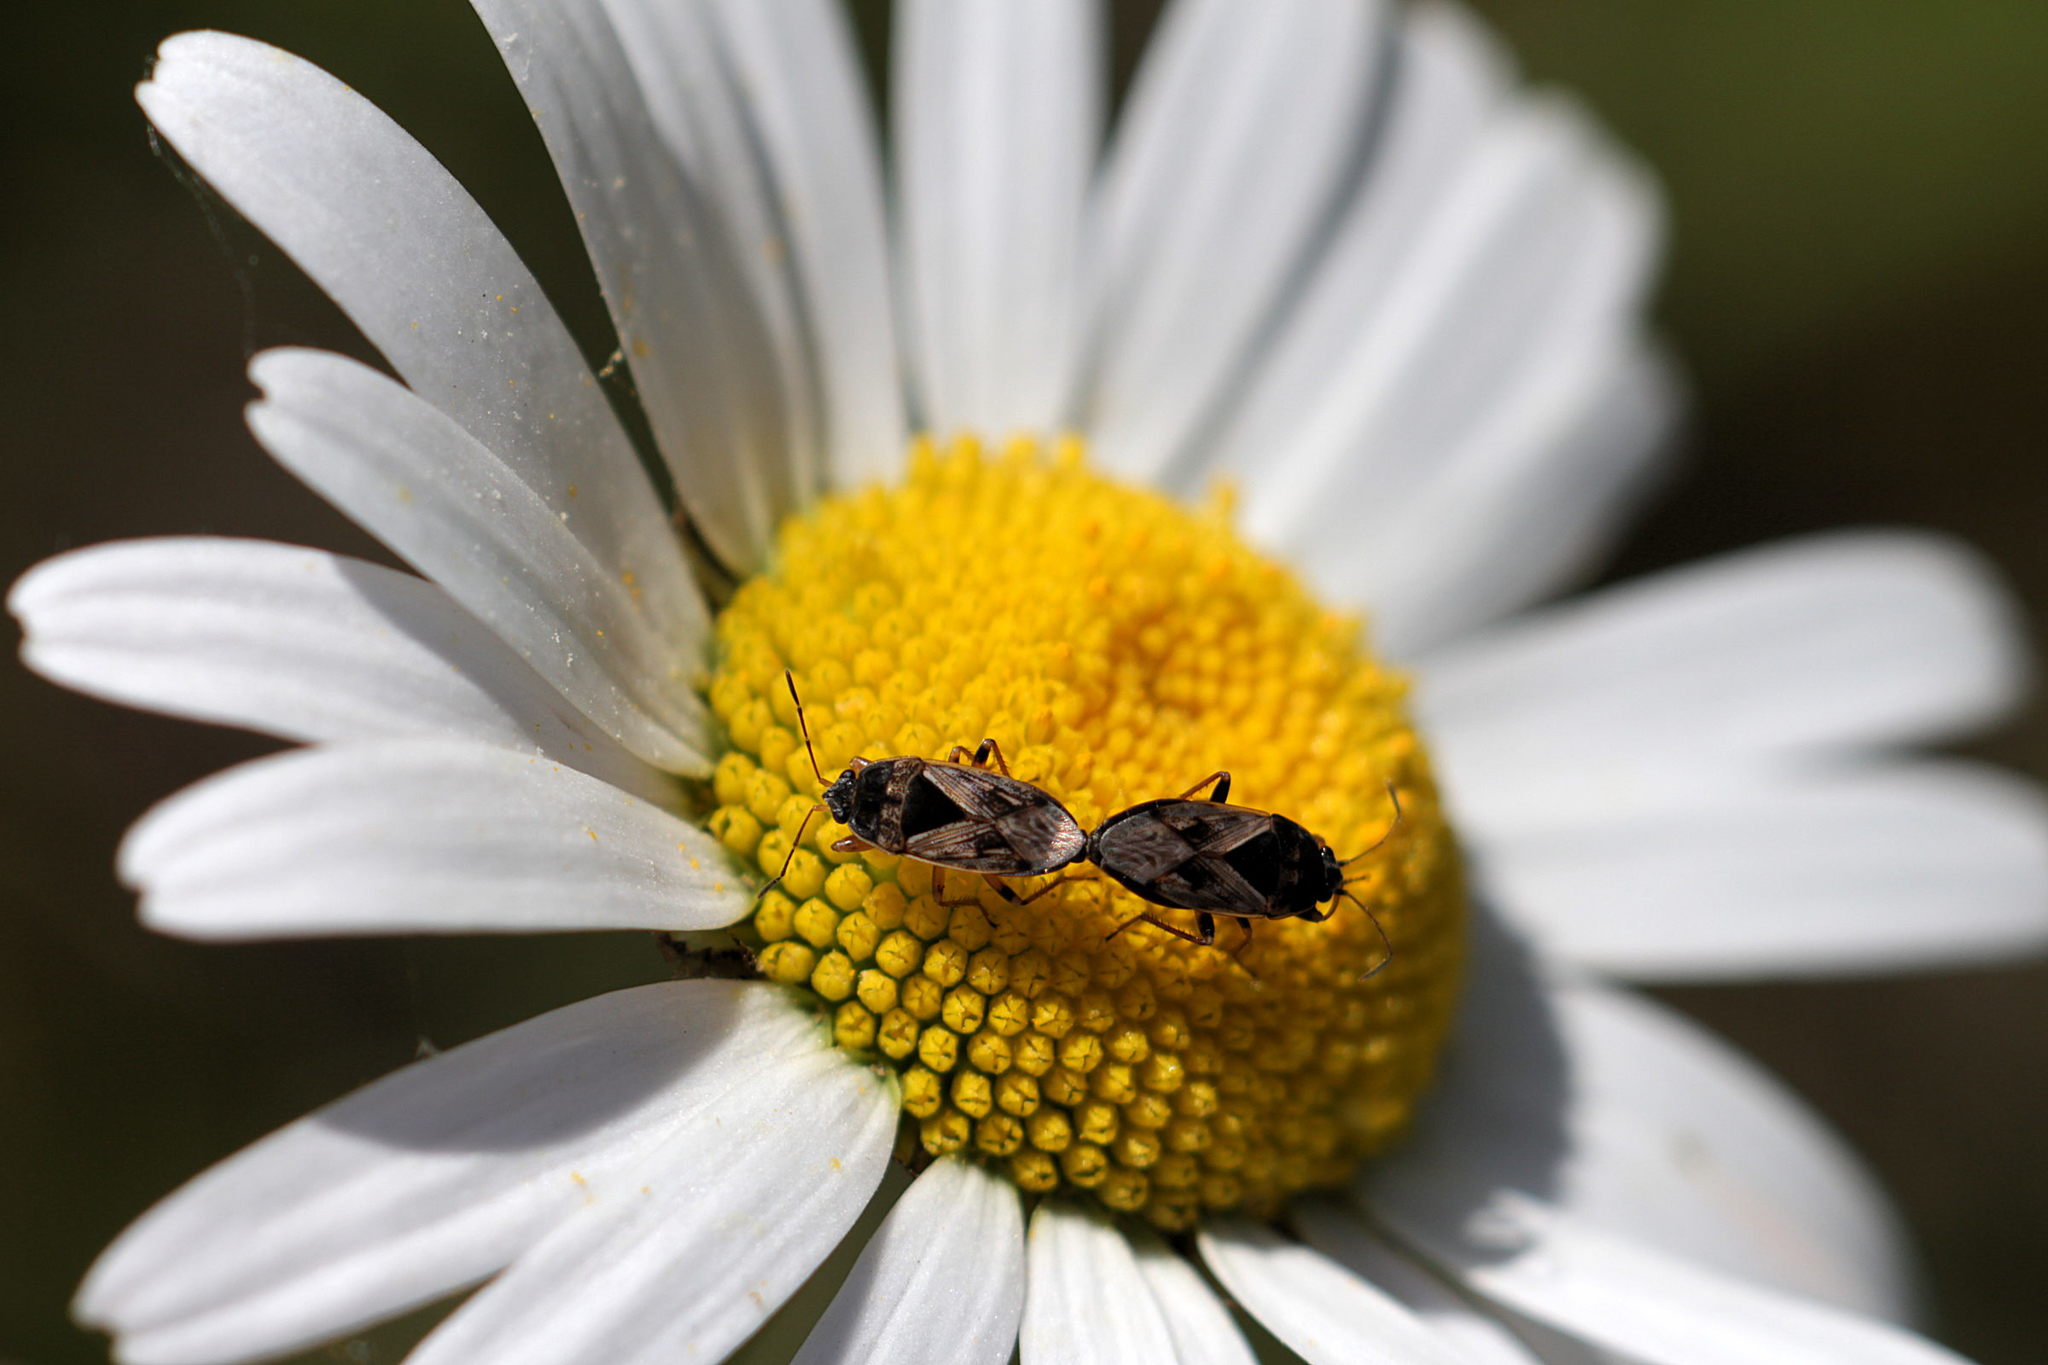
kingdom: Animalia
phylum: Arthropoda
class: Insecta
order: Hemiptera
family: Rhyparochromidae
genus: Trapezonotus
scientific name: Trapezonotus ullrichi
